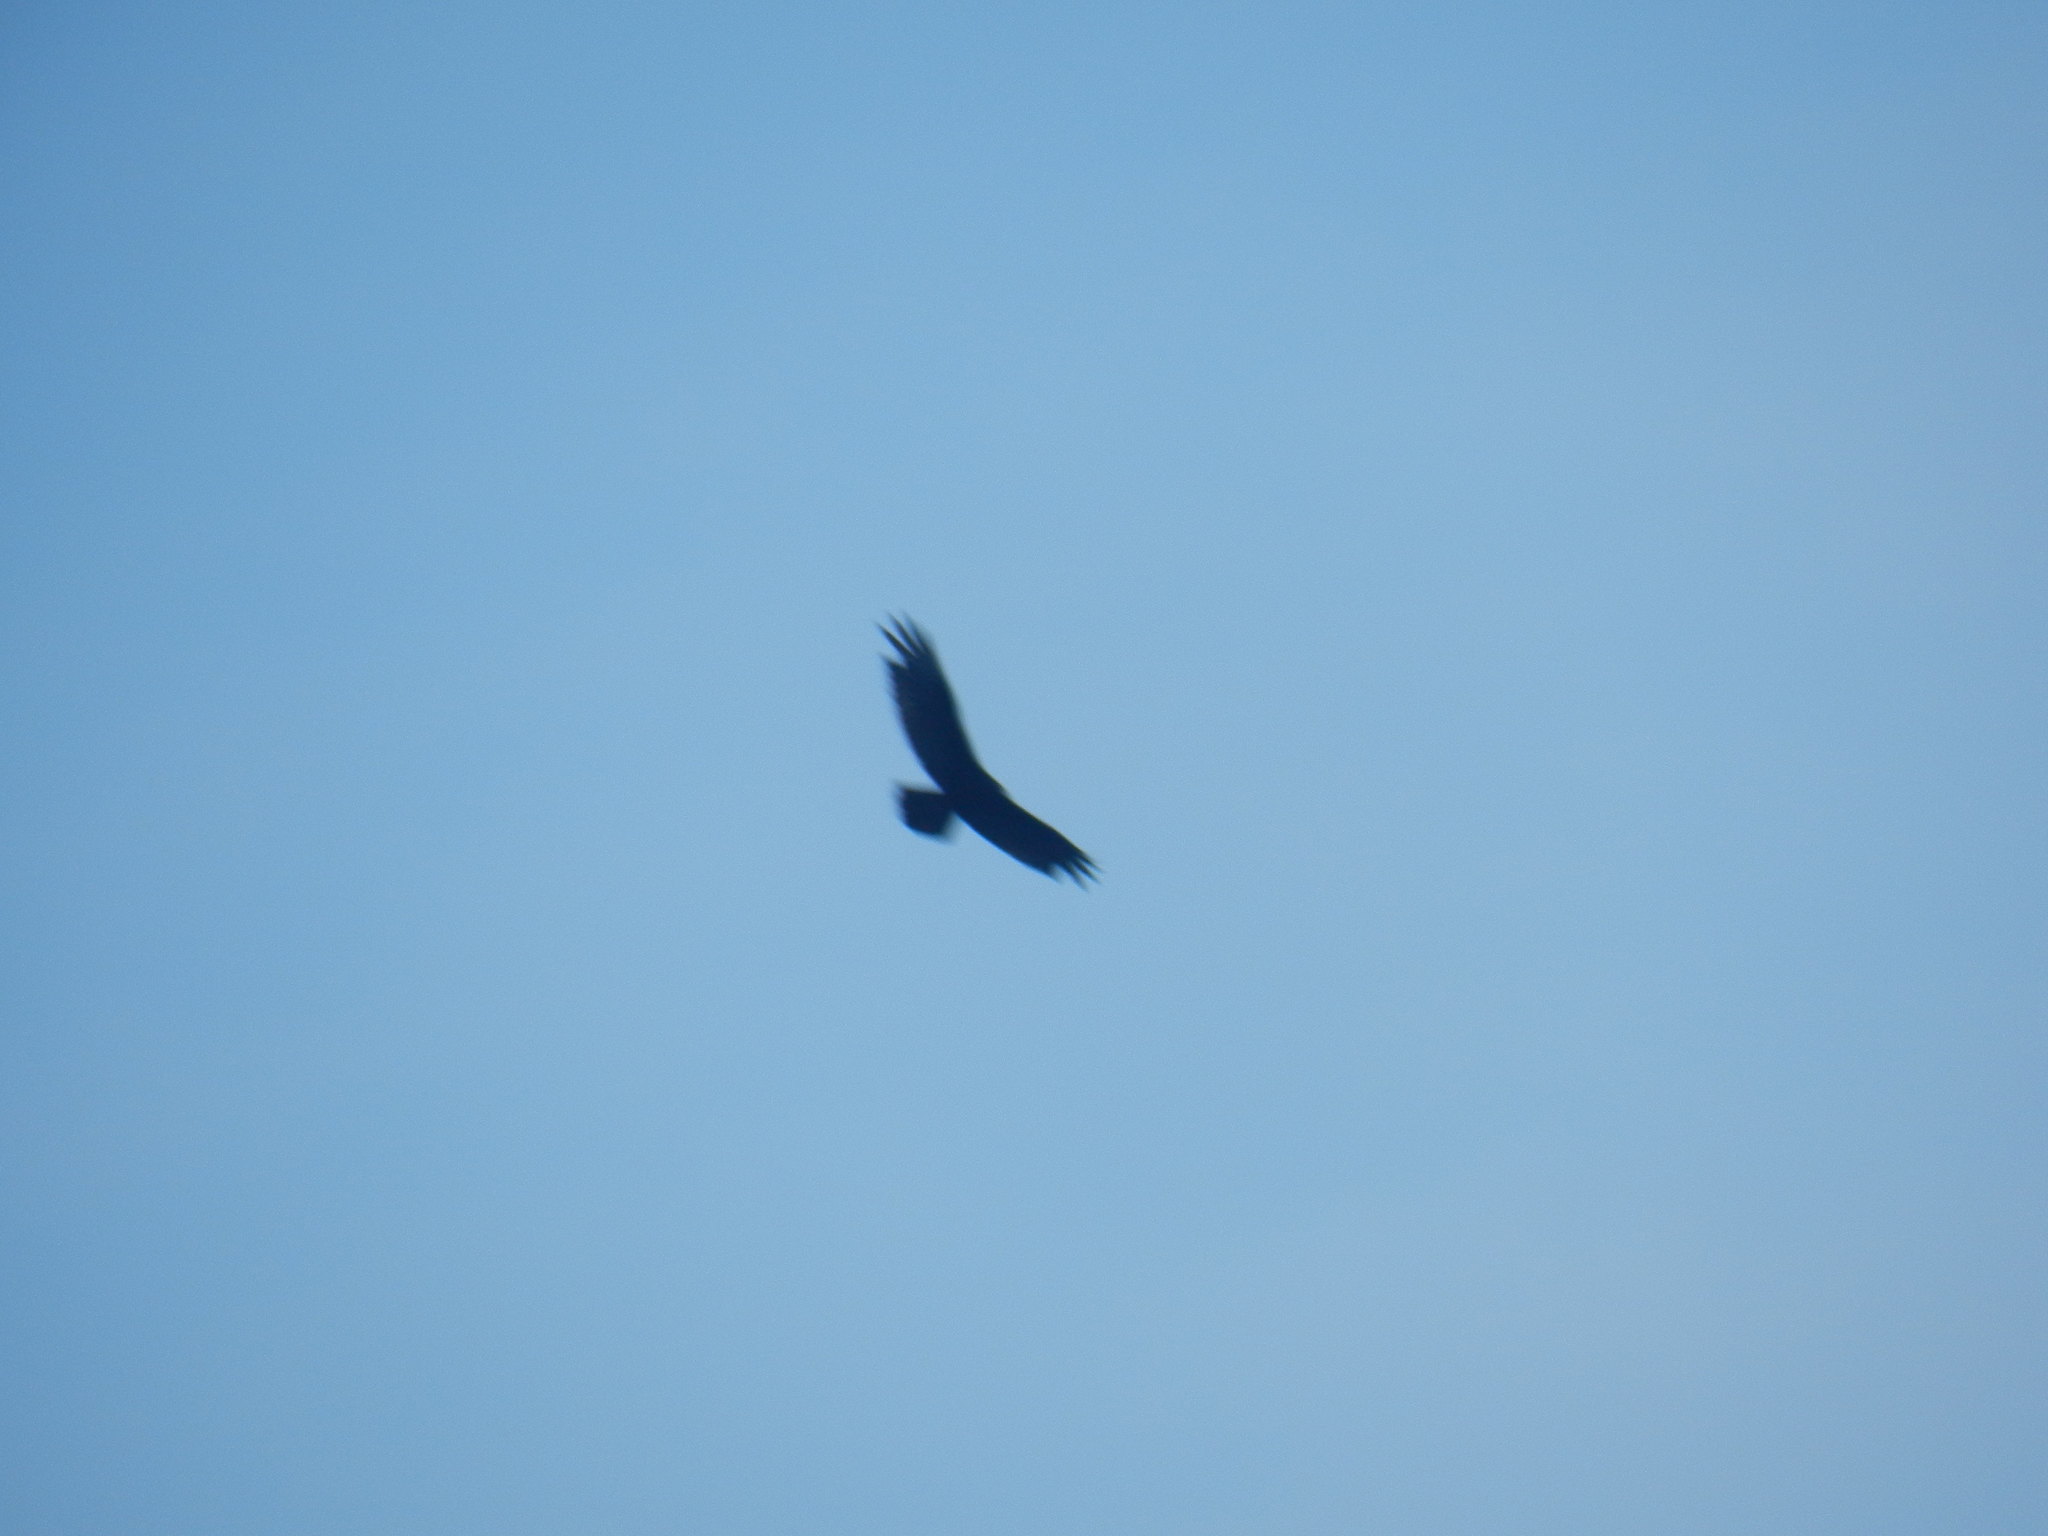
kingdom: Animalia
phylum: Chordata
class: Aves
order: Accipitriformes
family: Cathartidae
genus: Cathartes
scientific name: Cathartes
